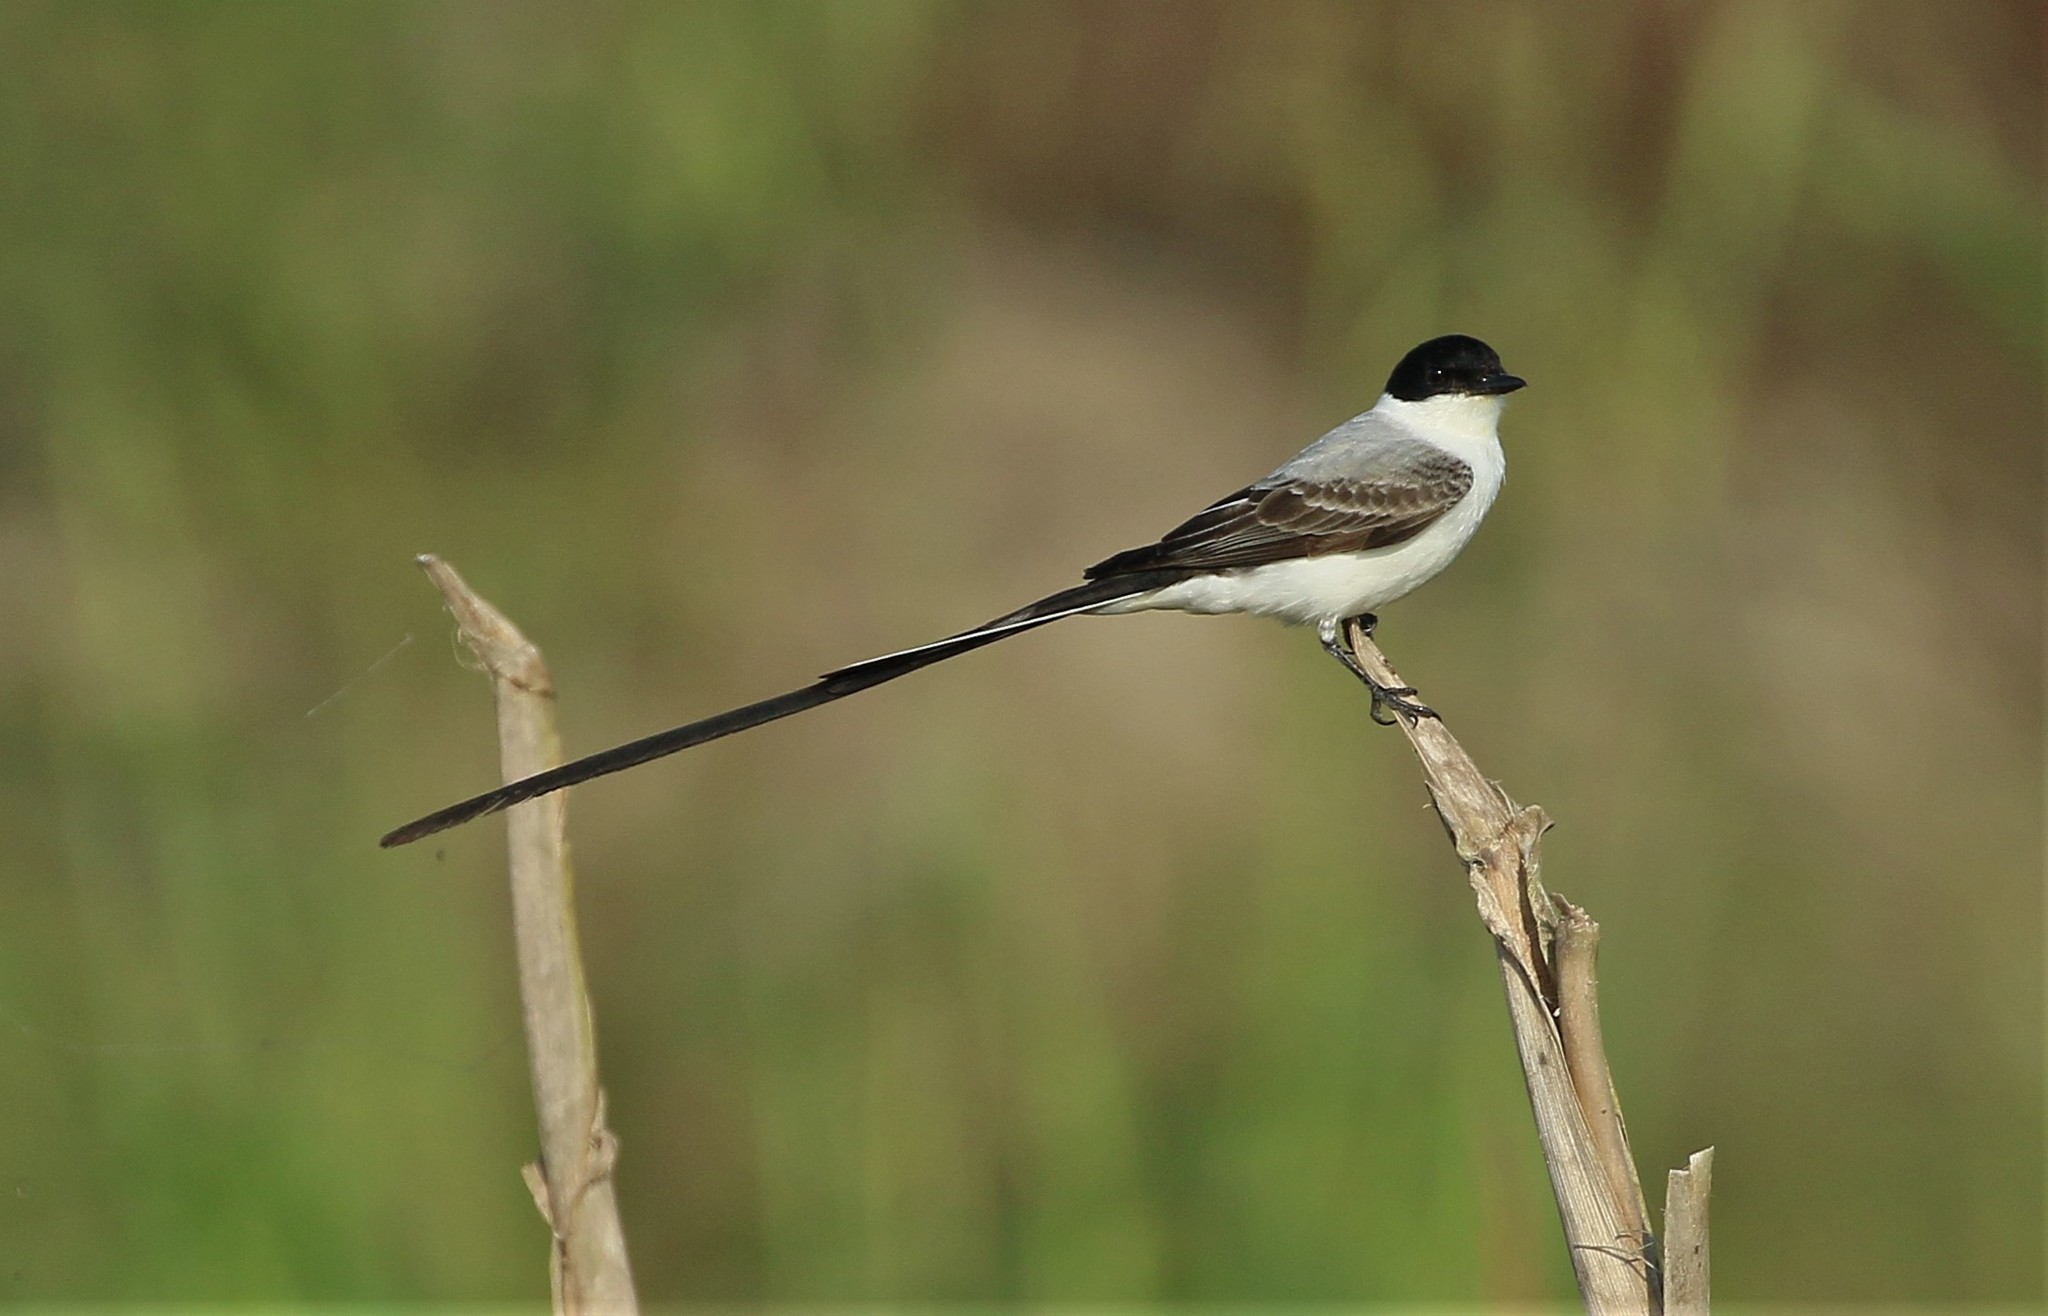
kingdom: Animalia
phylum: Chordata
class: Aves
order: Passeriformes
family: Tyrannidae
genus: Tyrannus
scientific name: Tyrannus savana
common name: Fork-tailed flycatcher
